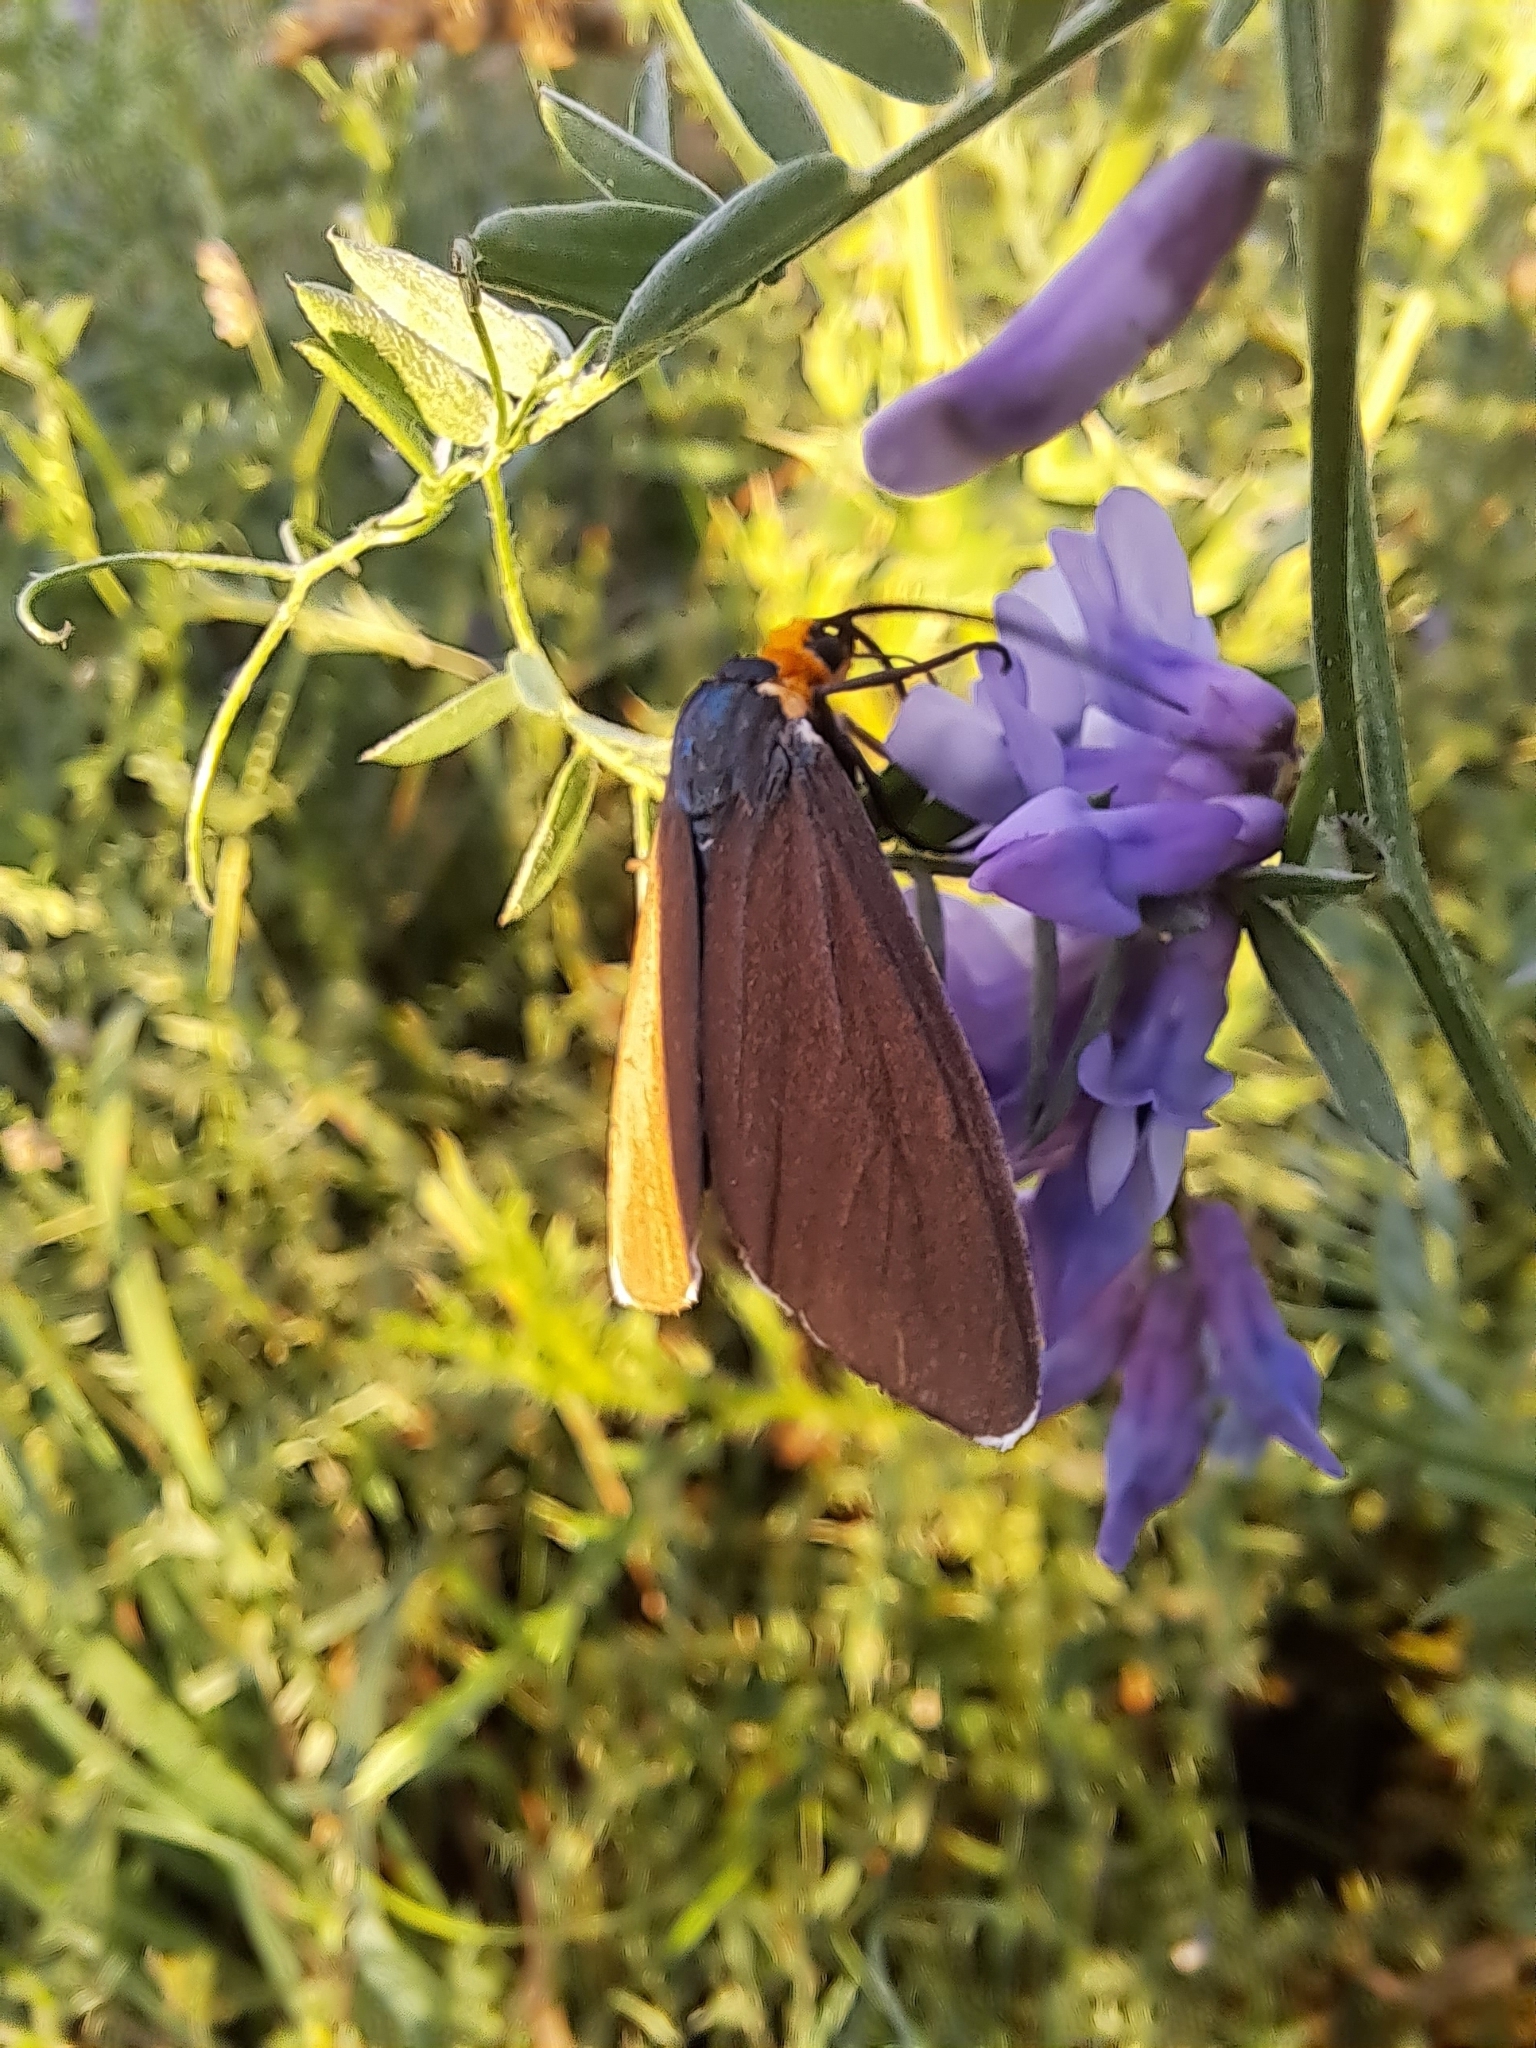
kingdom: Animalia
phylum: Arthropoda
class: Insecta
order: Lepidoptera
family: Erebidae
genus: Ctenucha
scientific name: Ctenucha virginica
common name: Virginia ctenucha moth
